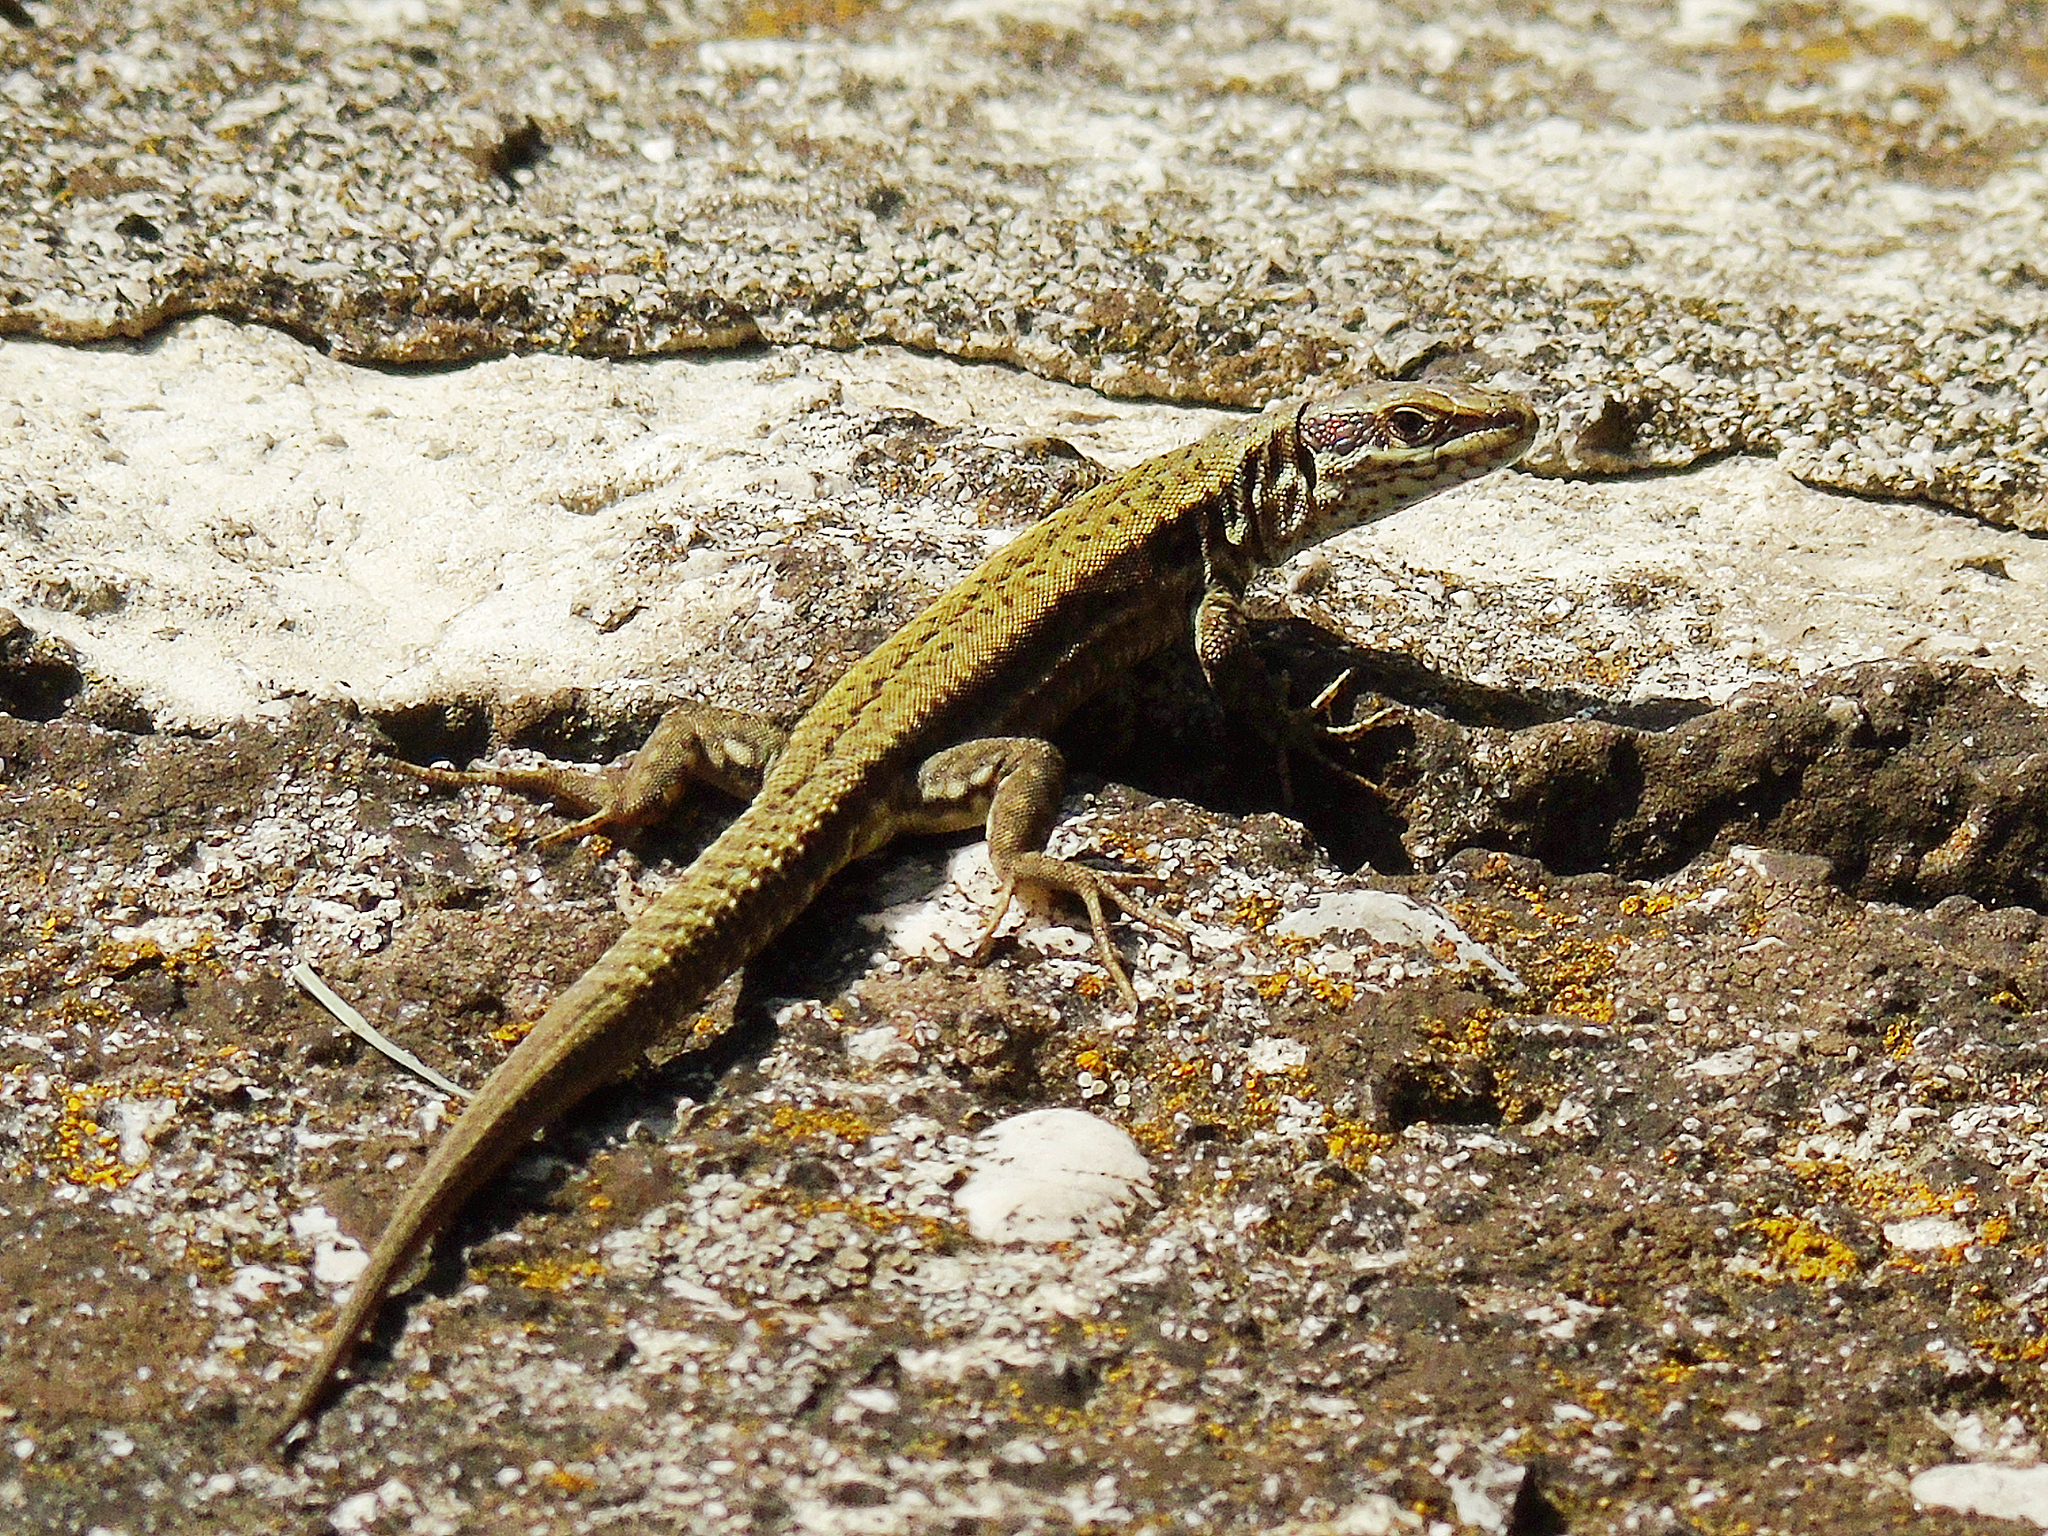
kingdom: Animalia
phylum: Chordata
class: Squamata
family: Lacertidae
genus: Podarcis
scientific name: Podarcis muralis
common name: Common wall lizard
